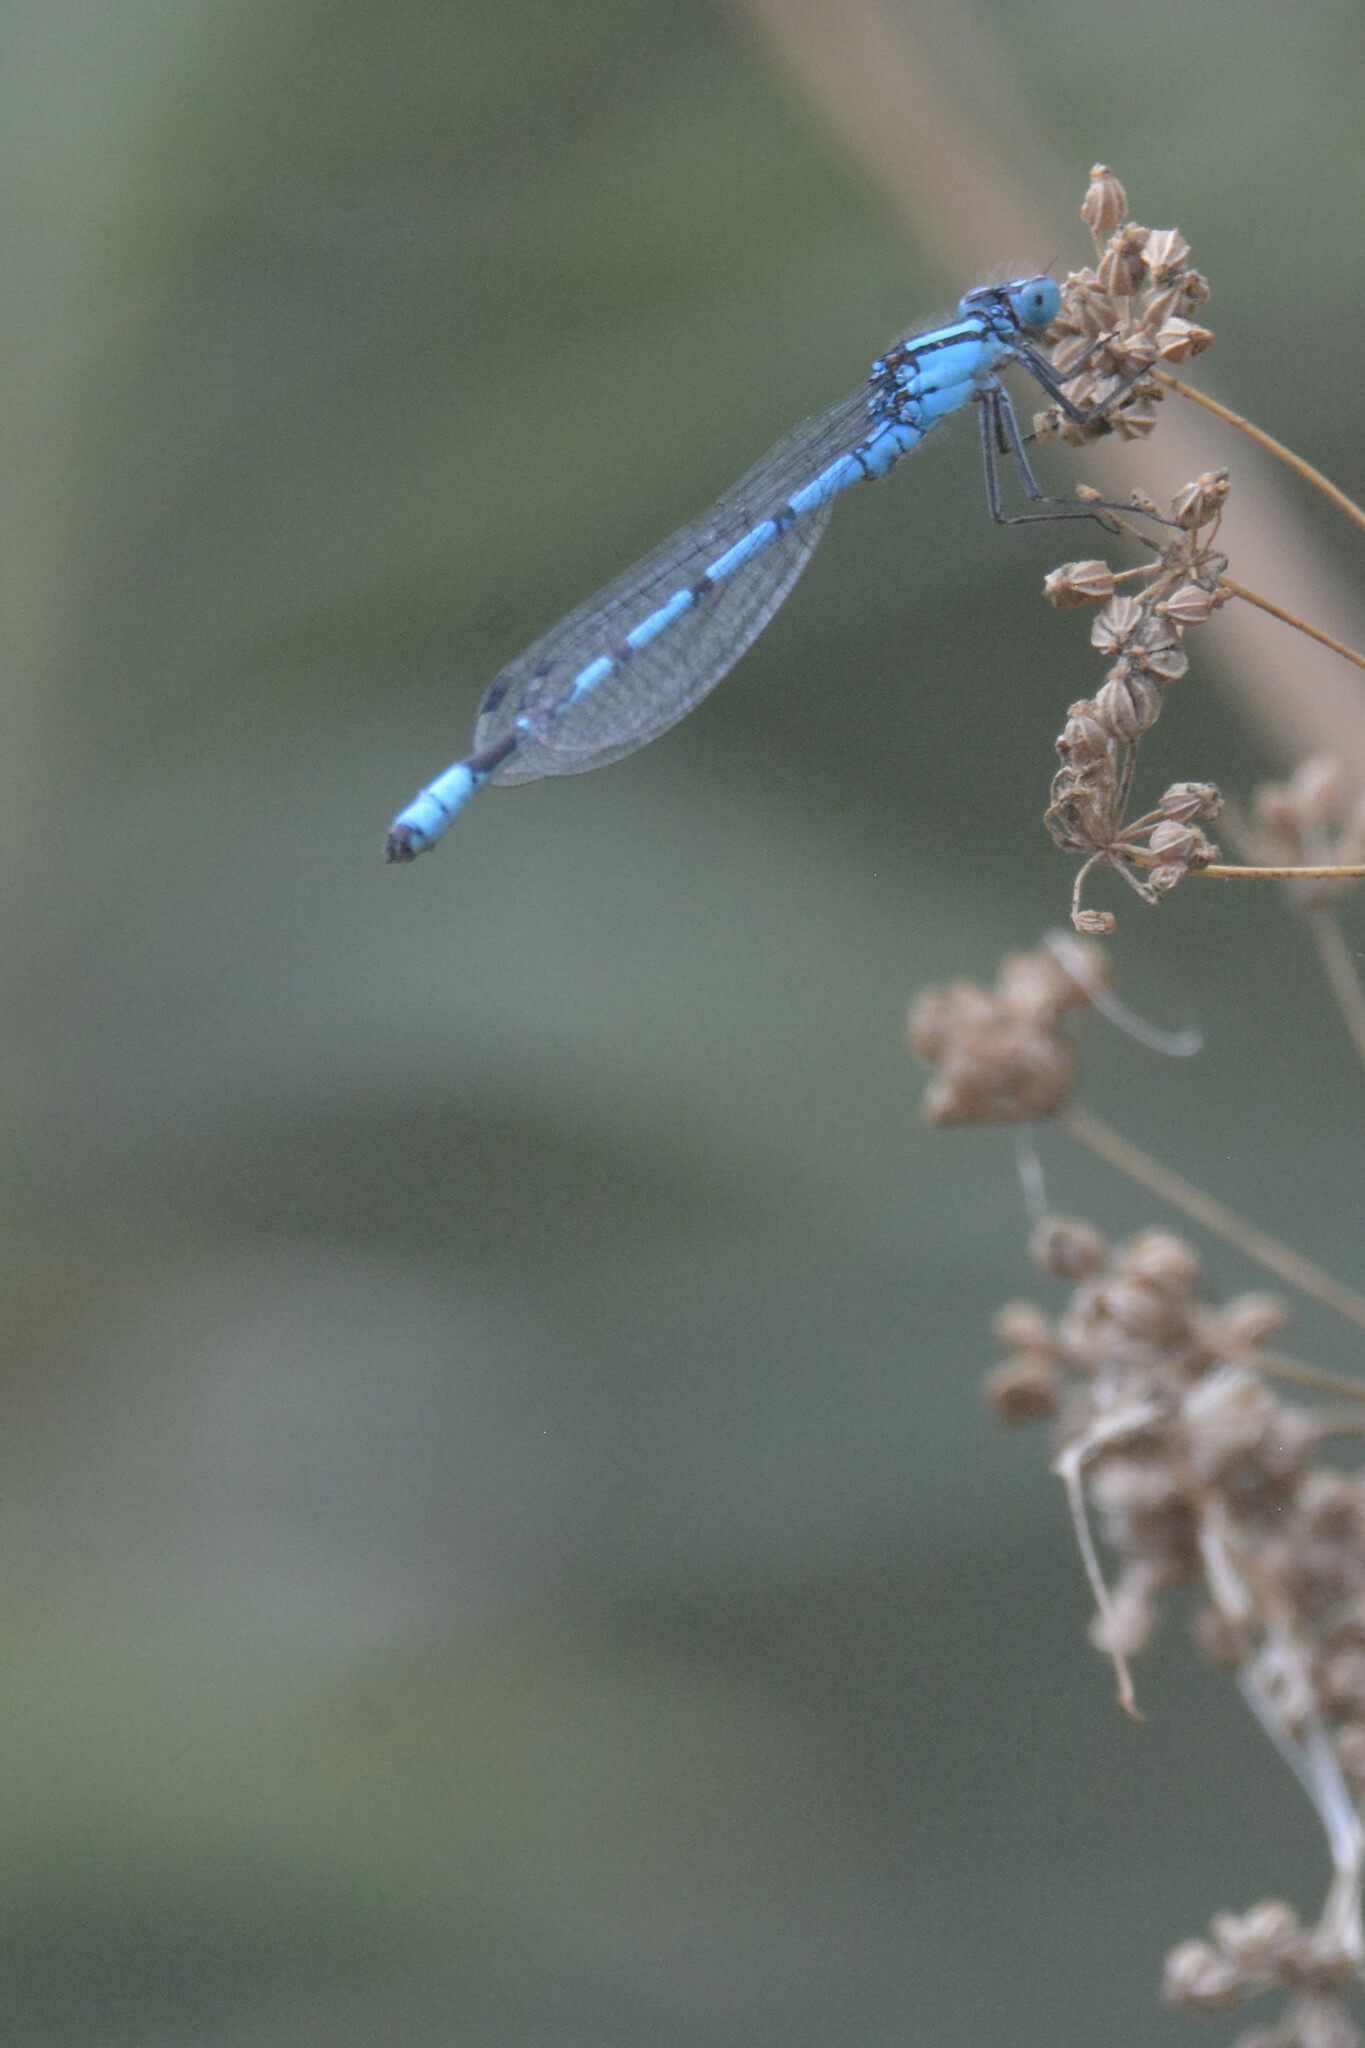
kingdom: Animalia
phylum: Arthropoda
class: Insecta
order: Odonata
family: Coenagrionidae
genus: Enallagma
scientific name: Enallagma cyathigerum
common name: Common blue damselfly
